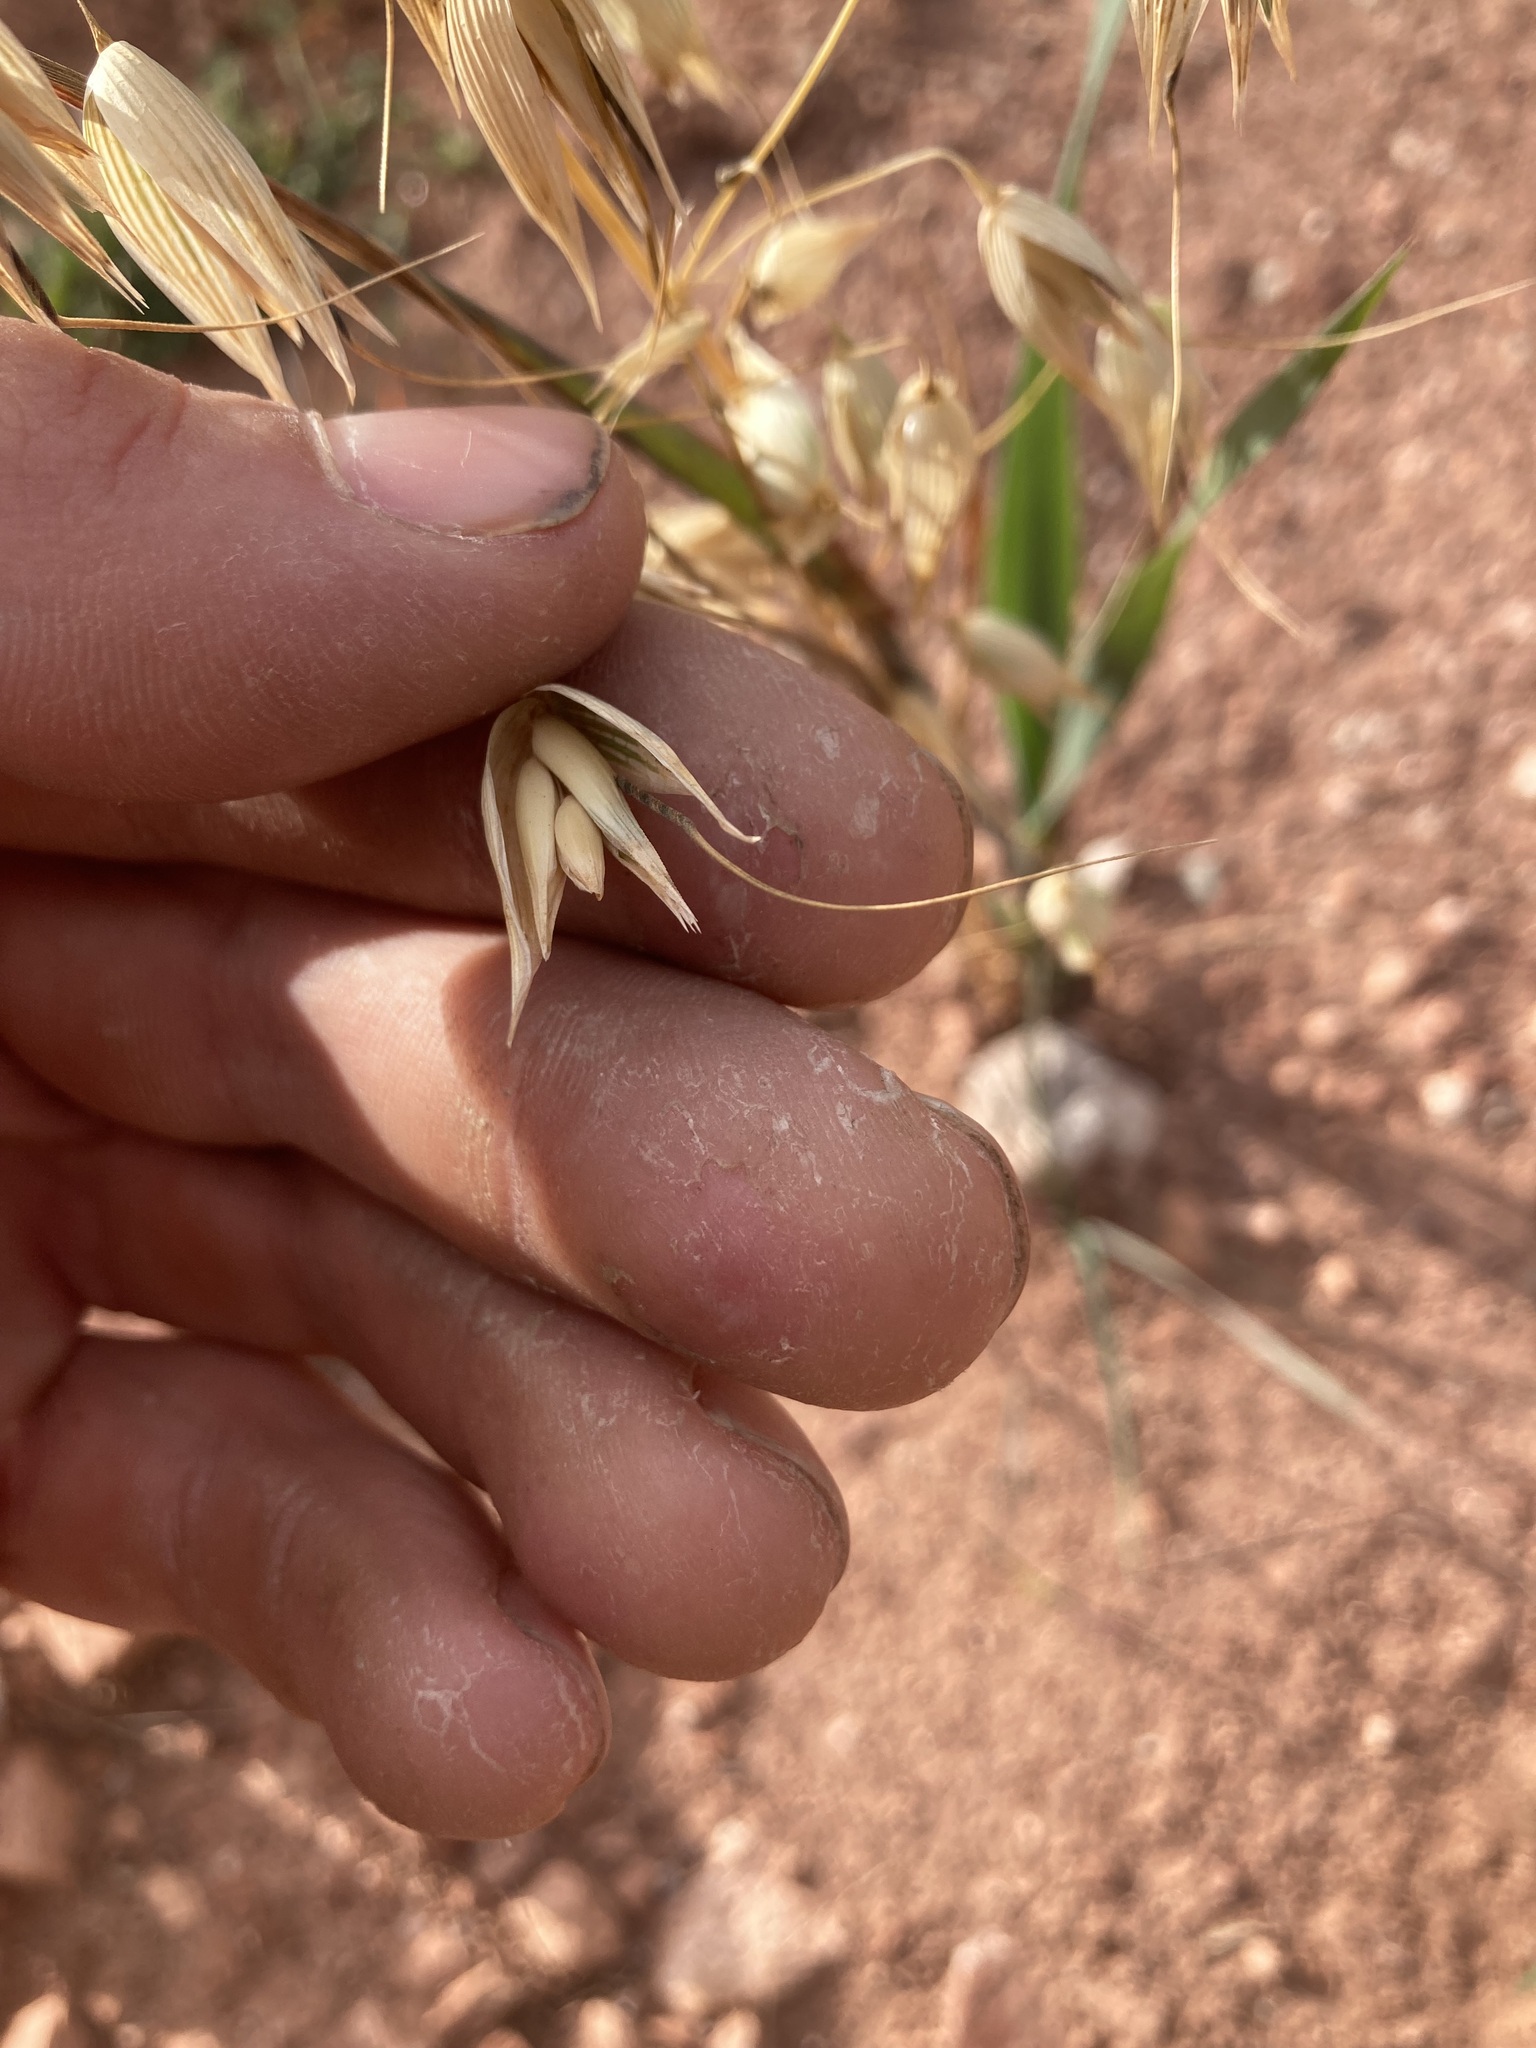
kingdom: Plantae
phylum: Tracheophyta
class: Liliopsida
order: Poales
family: Poaceae
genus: Avena
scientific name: Avena sativa
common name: Oat
